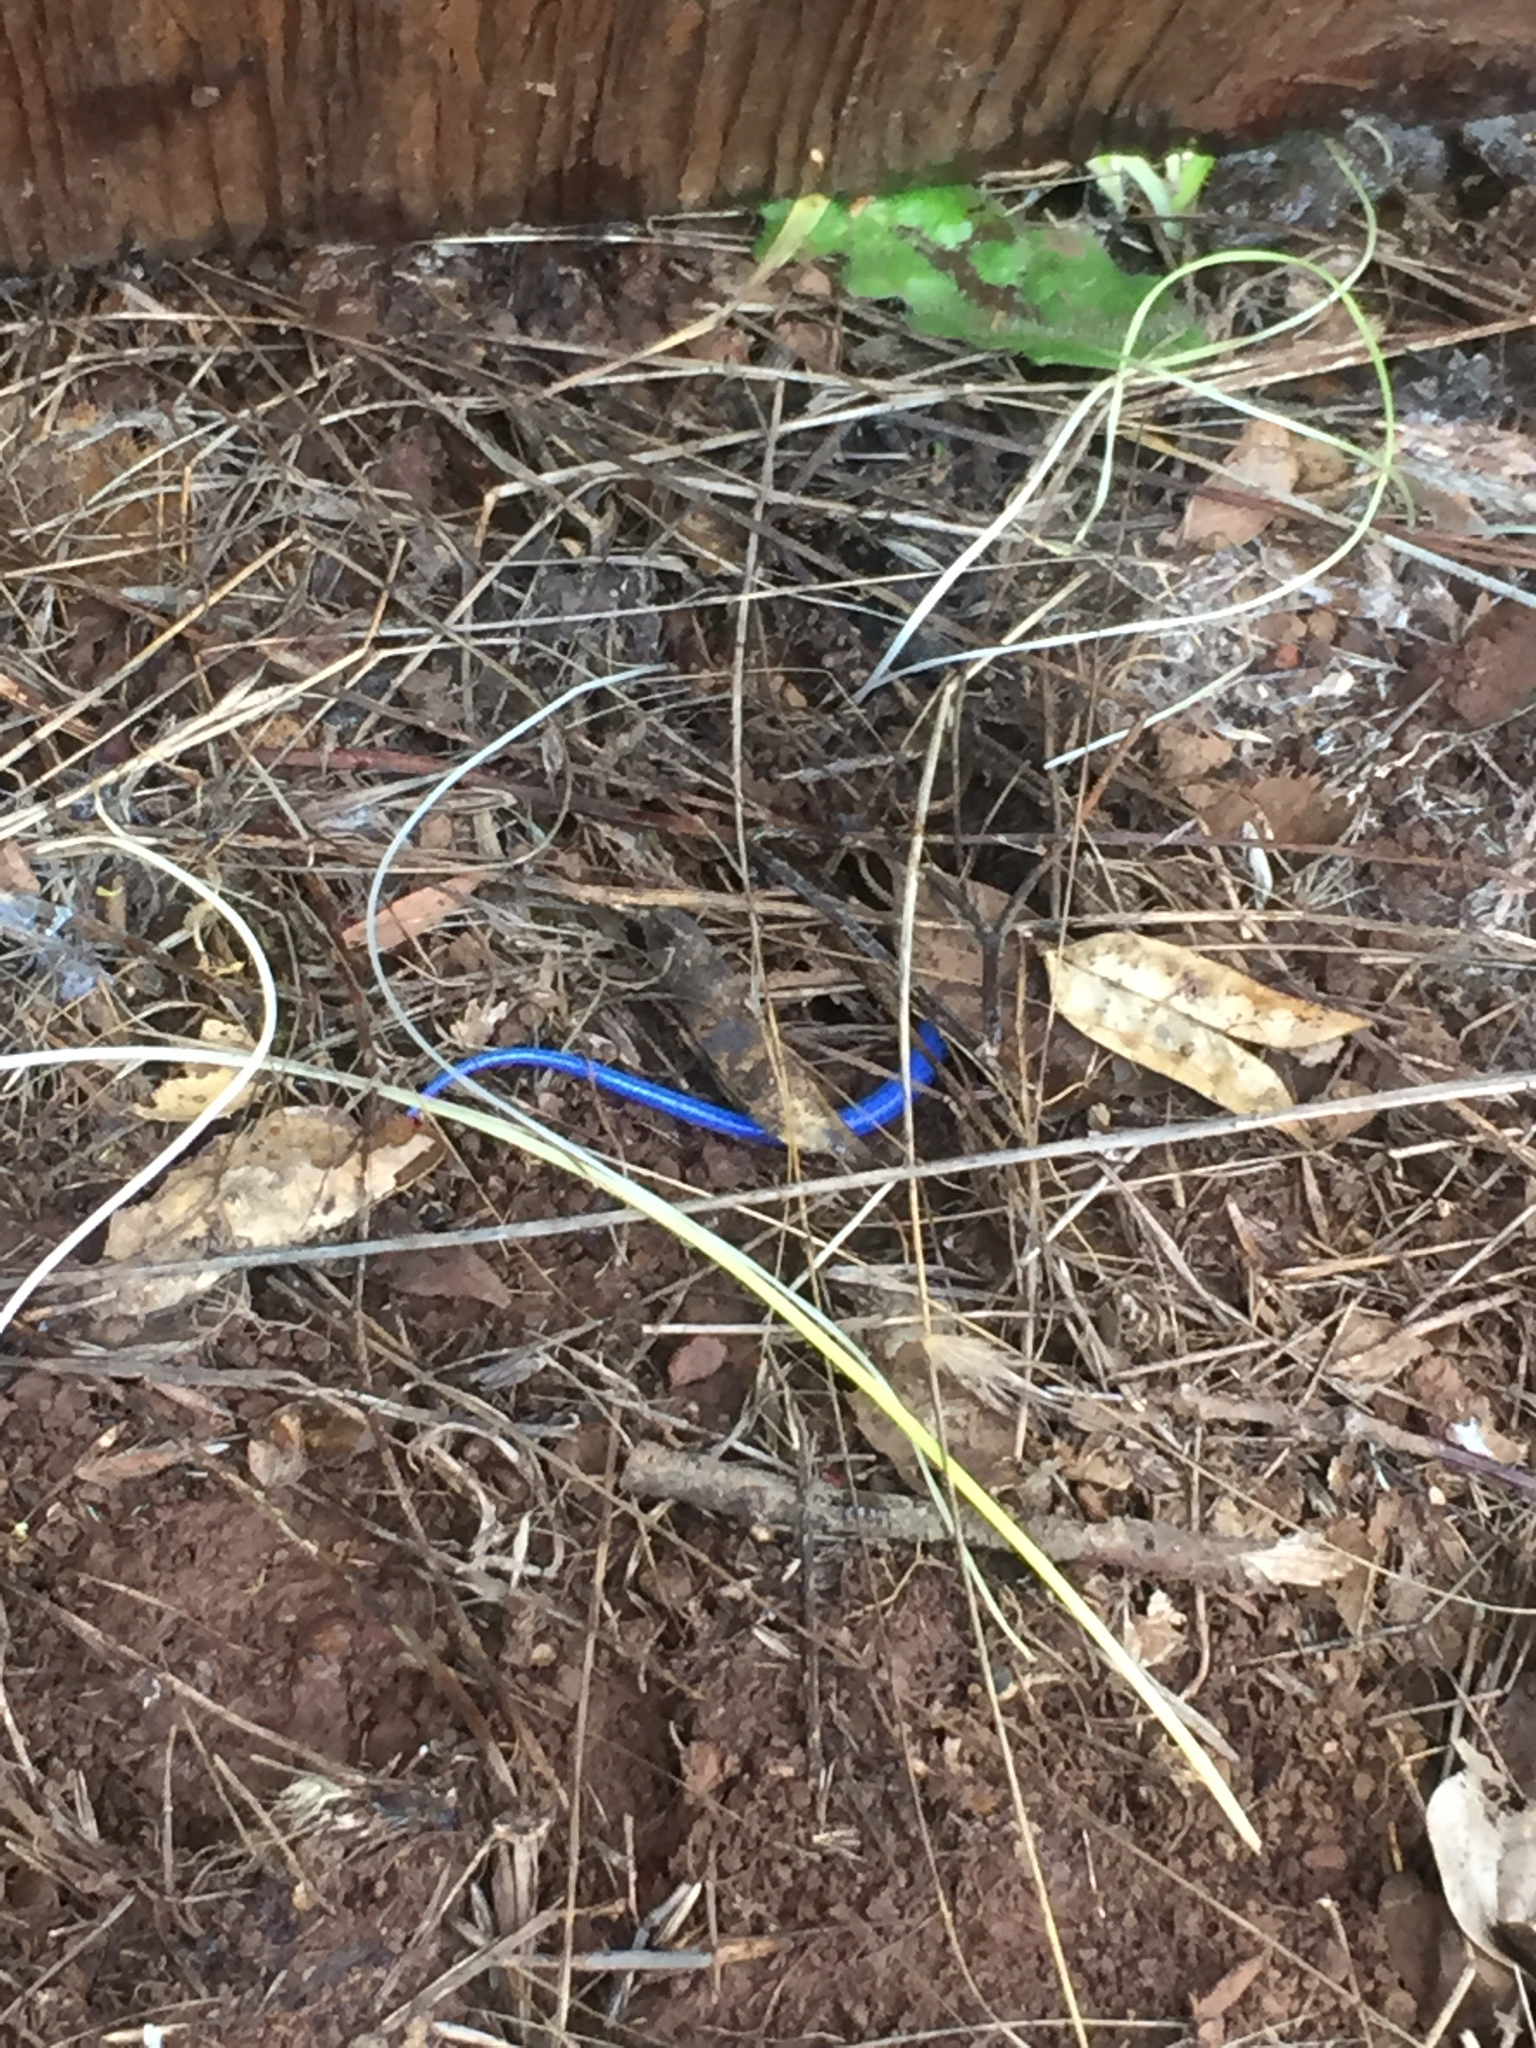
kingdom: Animalia
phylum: Chordata
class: Squamata
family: Scincidae
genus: Plestiodon
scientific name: Plestiodon skiltonianus
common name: Coronado island skink [interparietalis]
